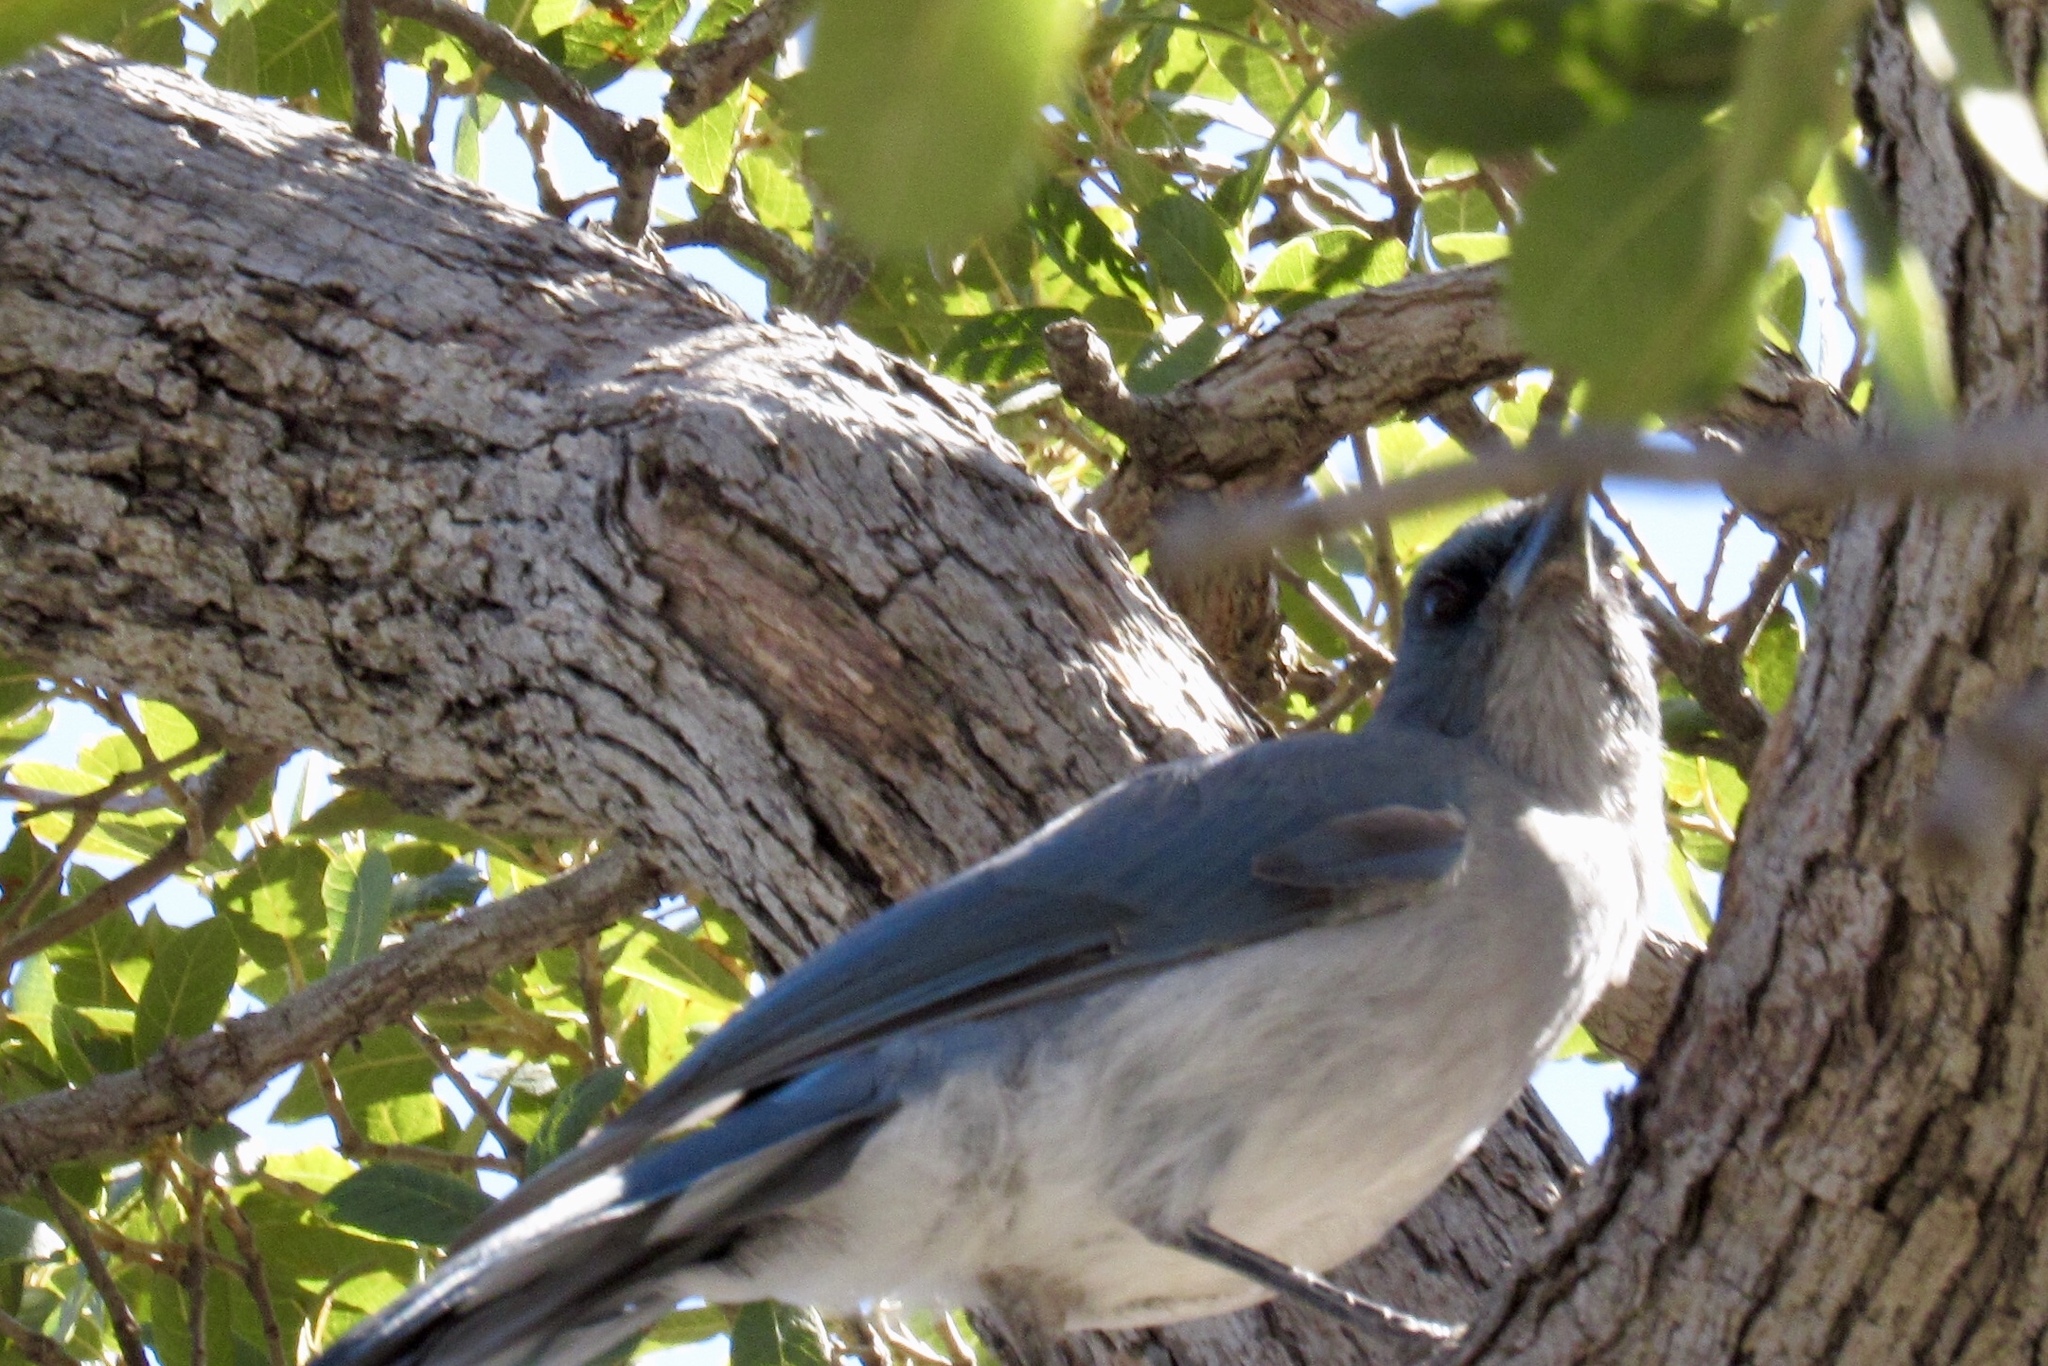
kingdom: Animalia
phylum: Chordata
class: Aves
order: Passeriformes
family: Corvidae
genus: Aphelocoma
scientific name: Aphelocoma wollweberi
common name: Mexican jay
